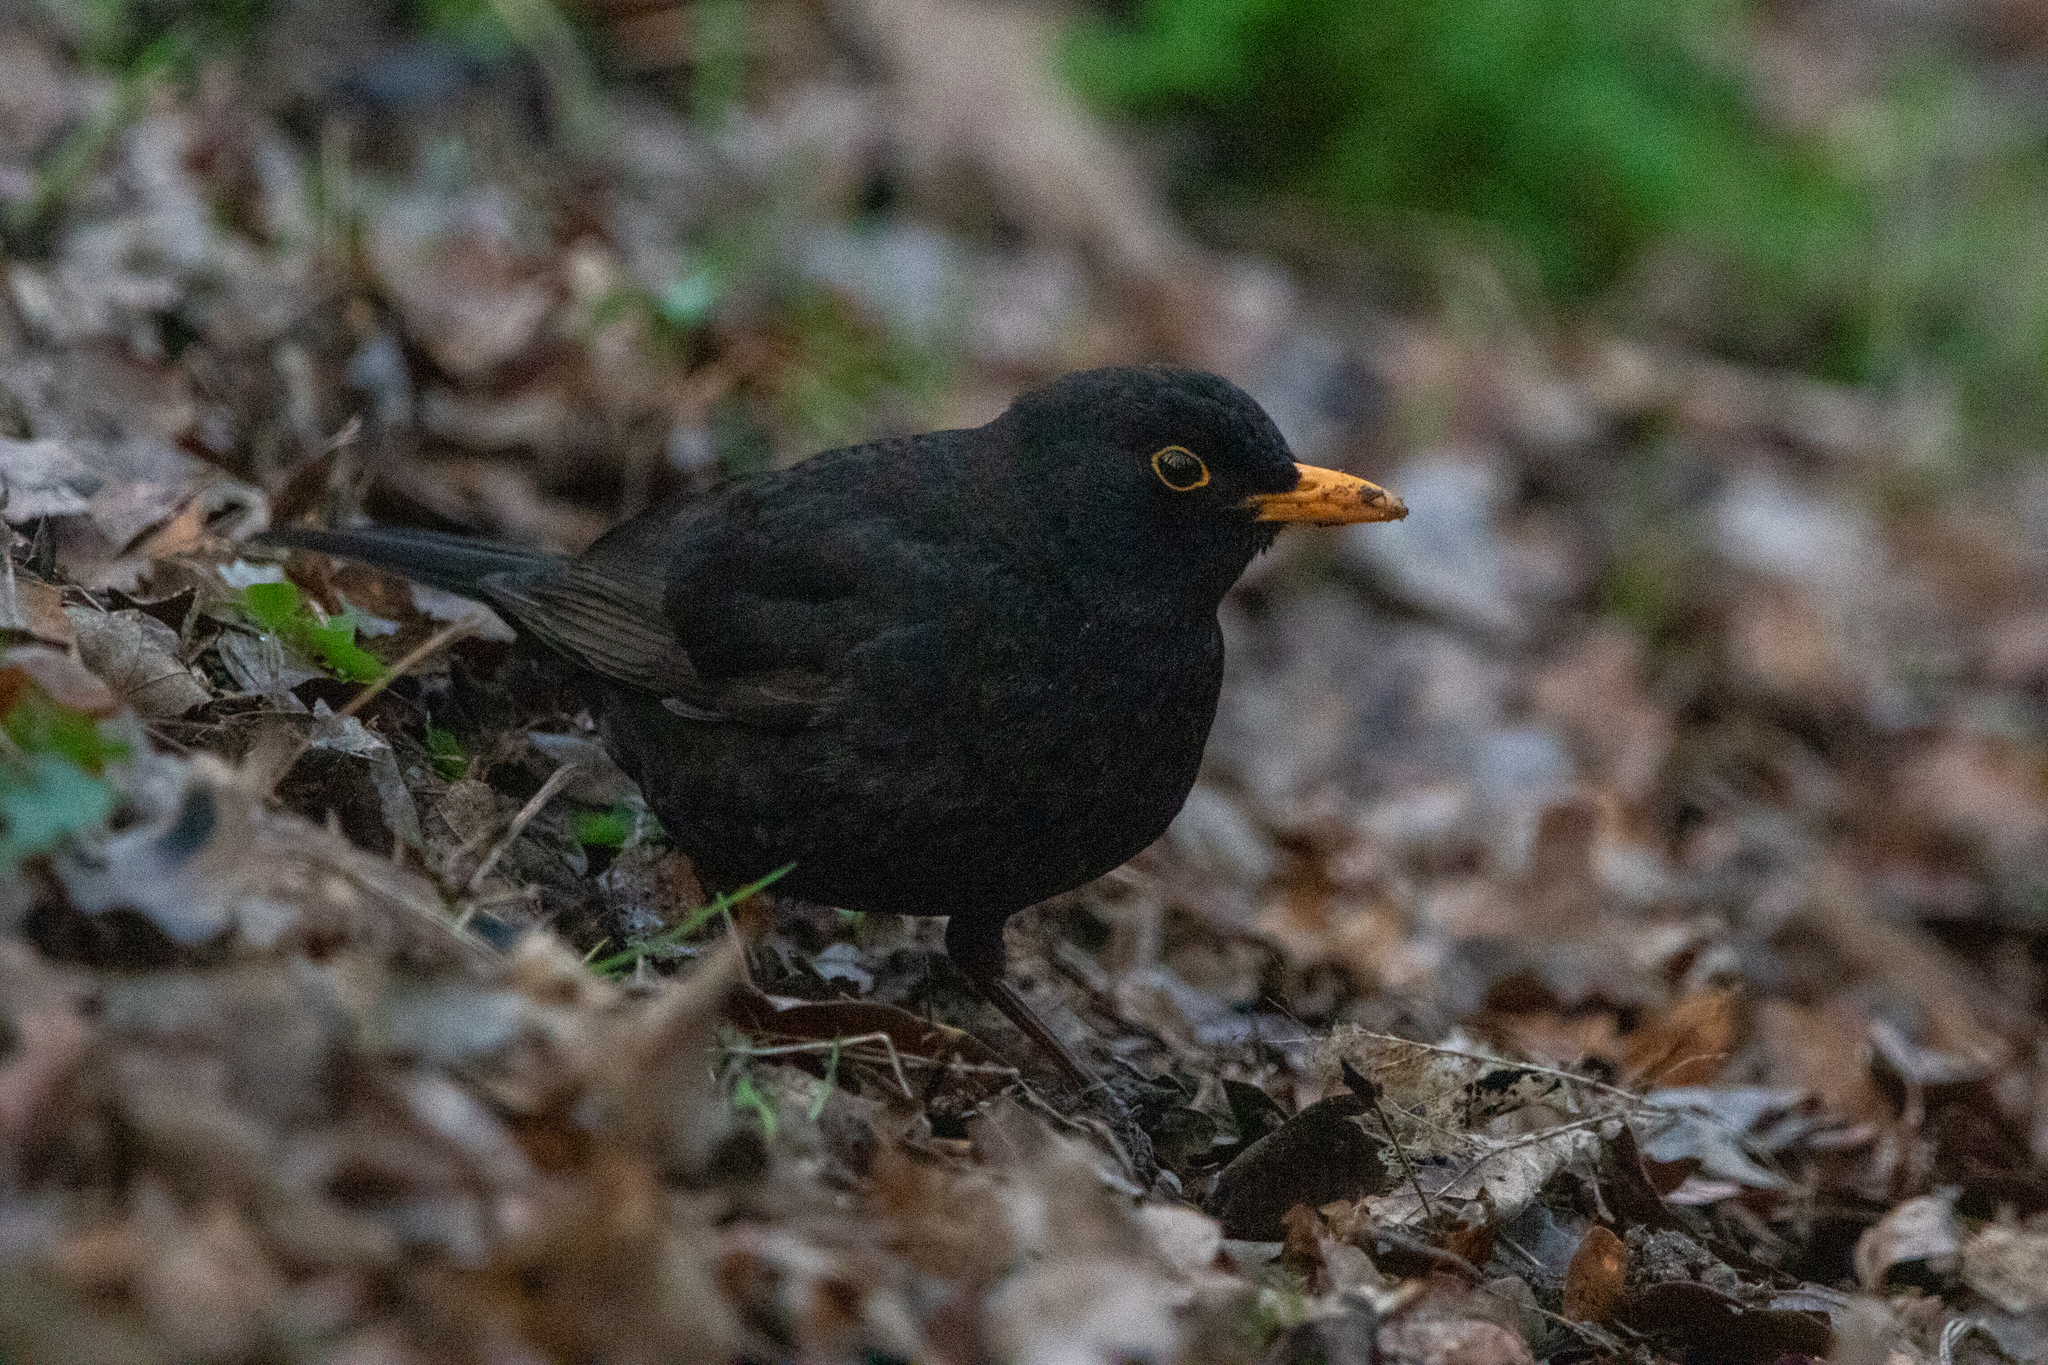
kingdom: Animalia
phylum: Chordata
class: Aves
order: Passeriformes
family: Turdidae
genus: Turdus
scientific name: Turdus merula
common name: Common blackbird
